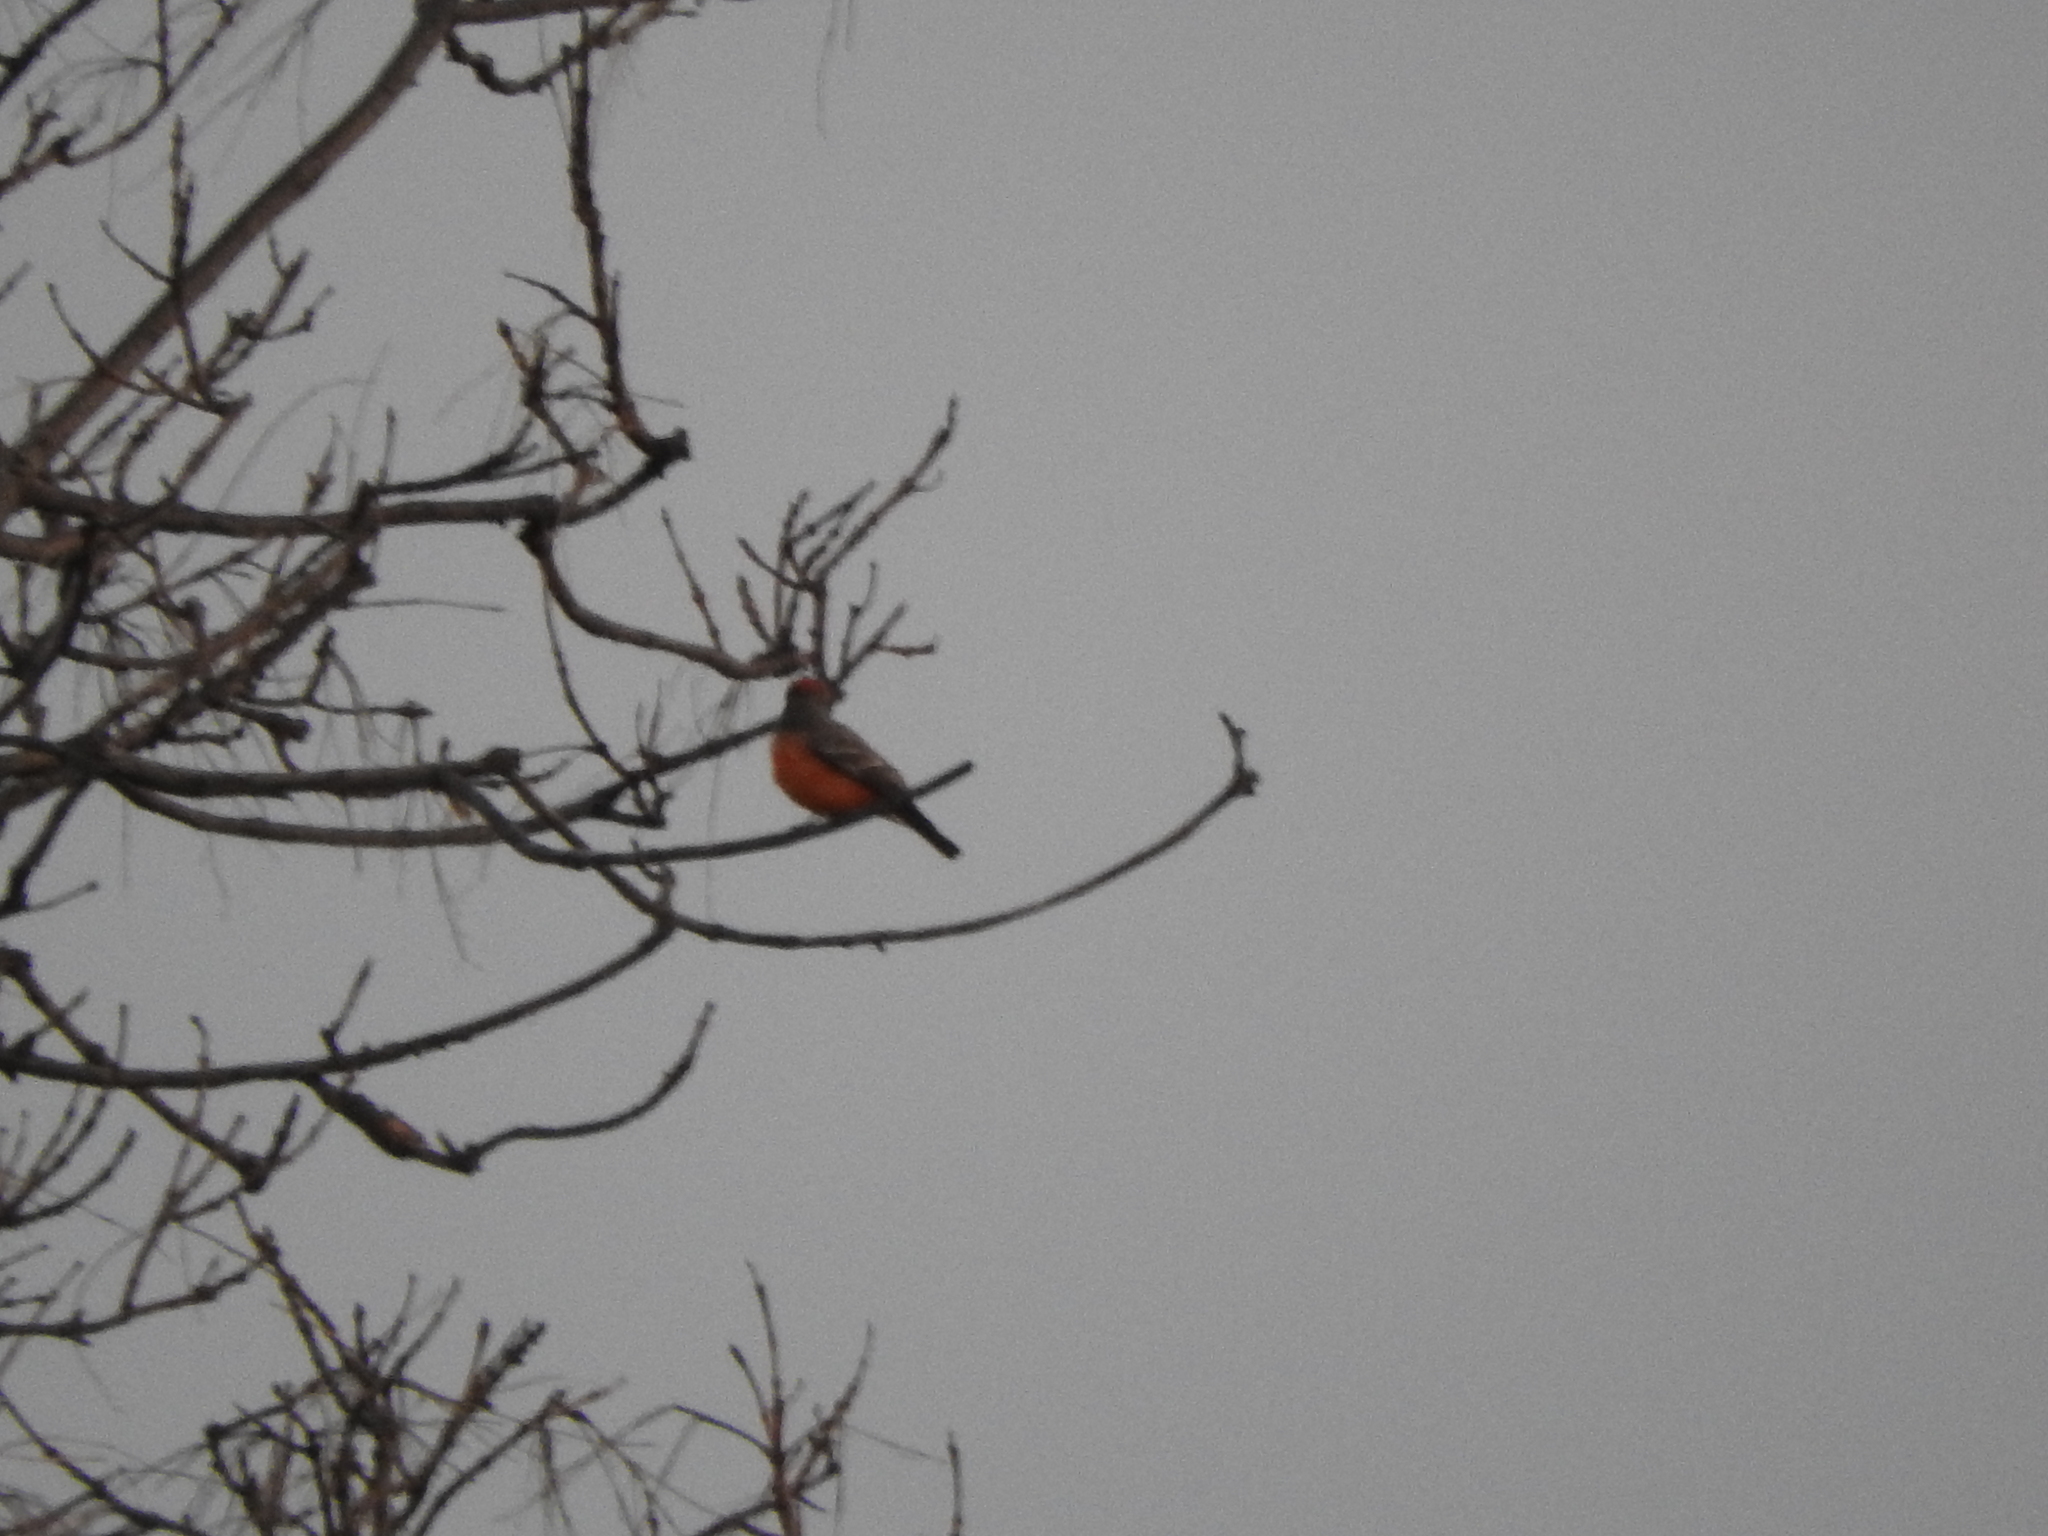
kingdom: Animalia
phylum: Chordata
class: Aves
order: Passeriformes
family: Tyrannidae
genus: Pyrocephalus
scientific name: Pyrocephalus rubinus
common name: Vermilion flycatcher
